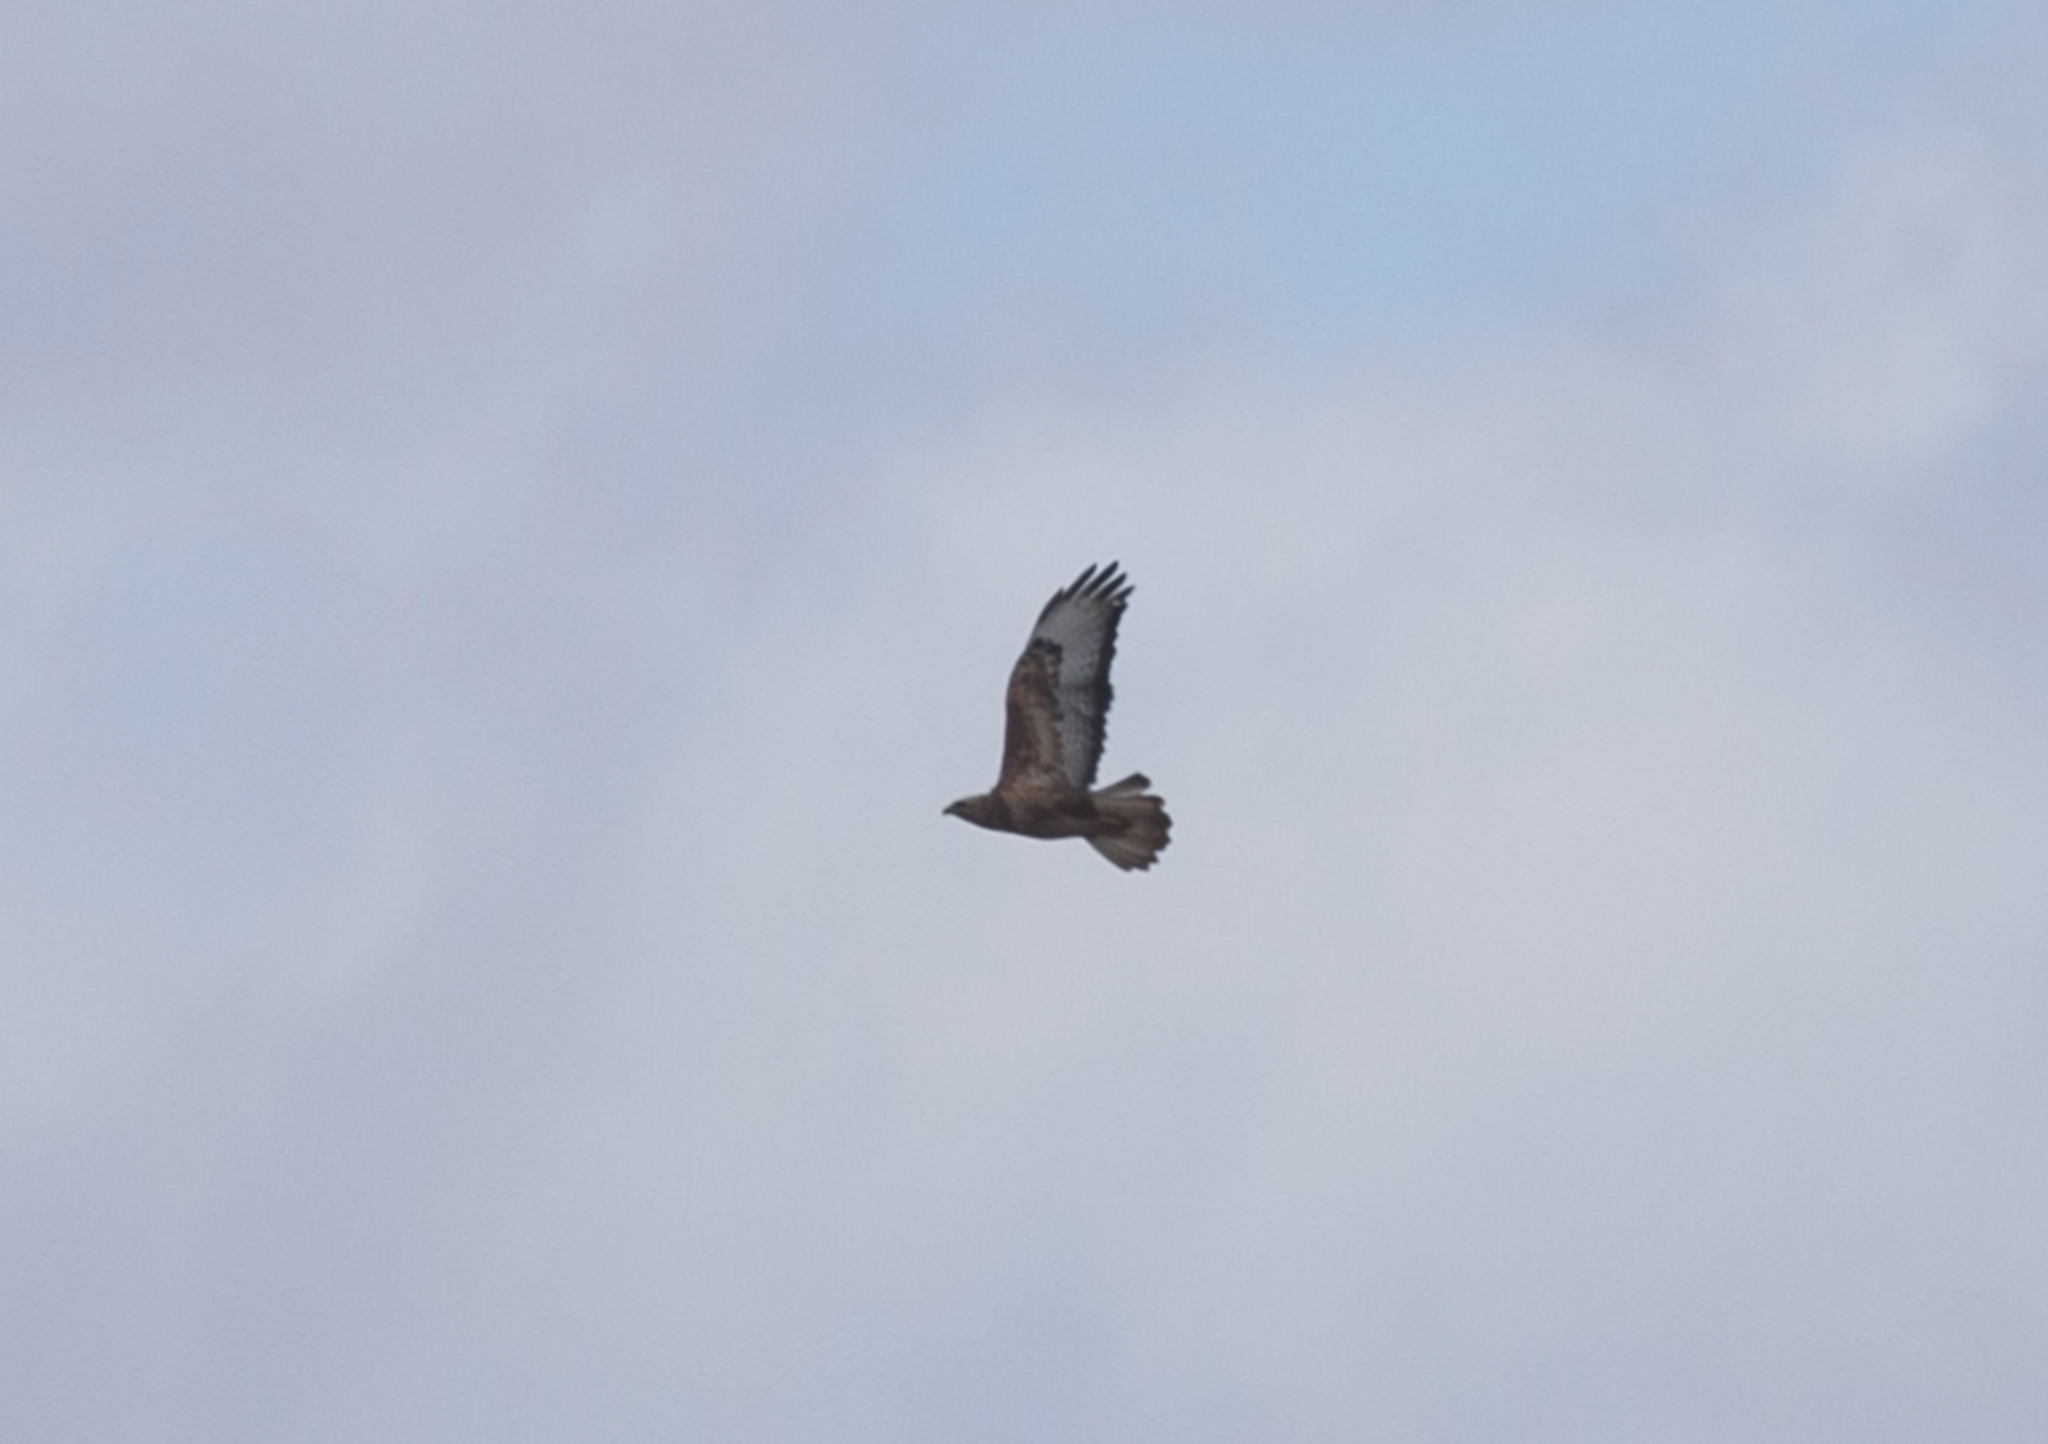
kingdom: Animalia
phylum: Chordata
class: Aves
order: Accipitriformes
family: Accipitridae
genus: Buteo
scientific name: Buteo buteo
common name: Common buzzard
